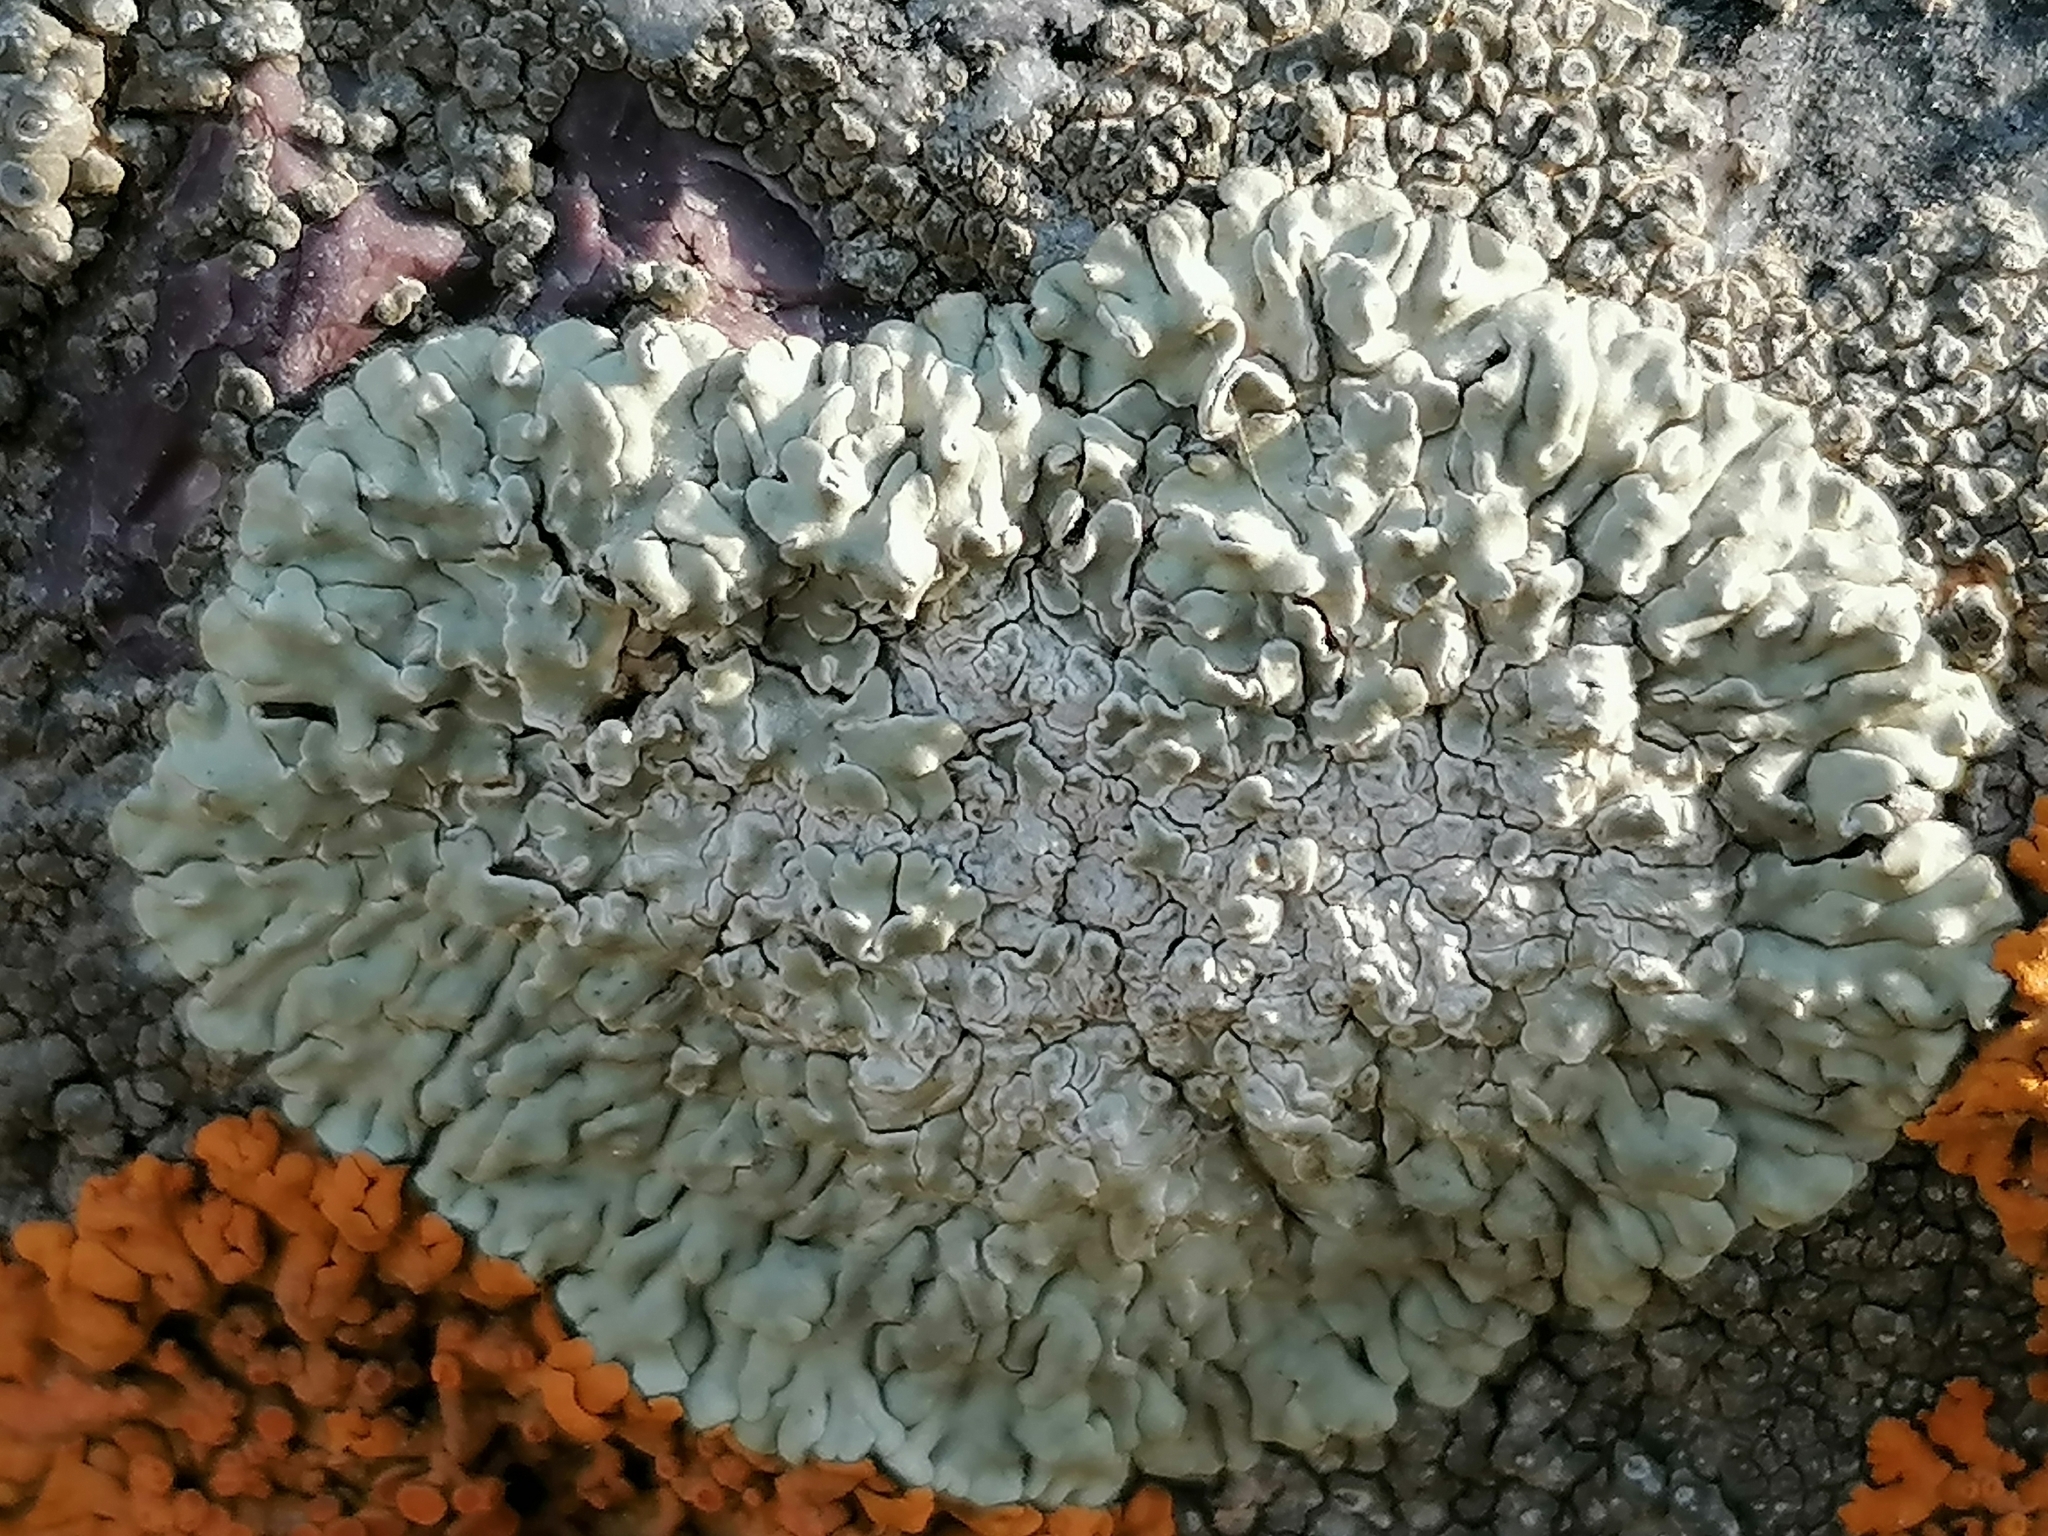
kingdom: Fungi
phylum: Ascomycota
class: Lecanoromycetes
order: Lecanorales
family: Lecanoraceae
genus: Protoparmeliopsis
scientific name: Protoparmeliopsis muralis
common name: Stonewall rim lichen
